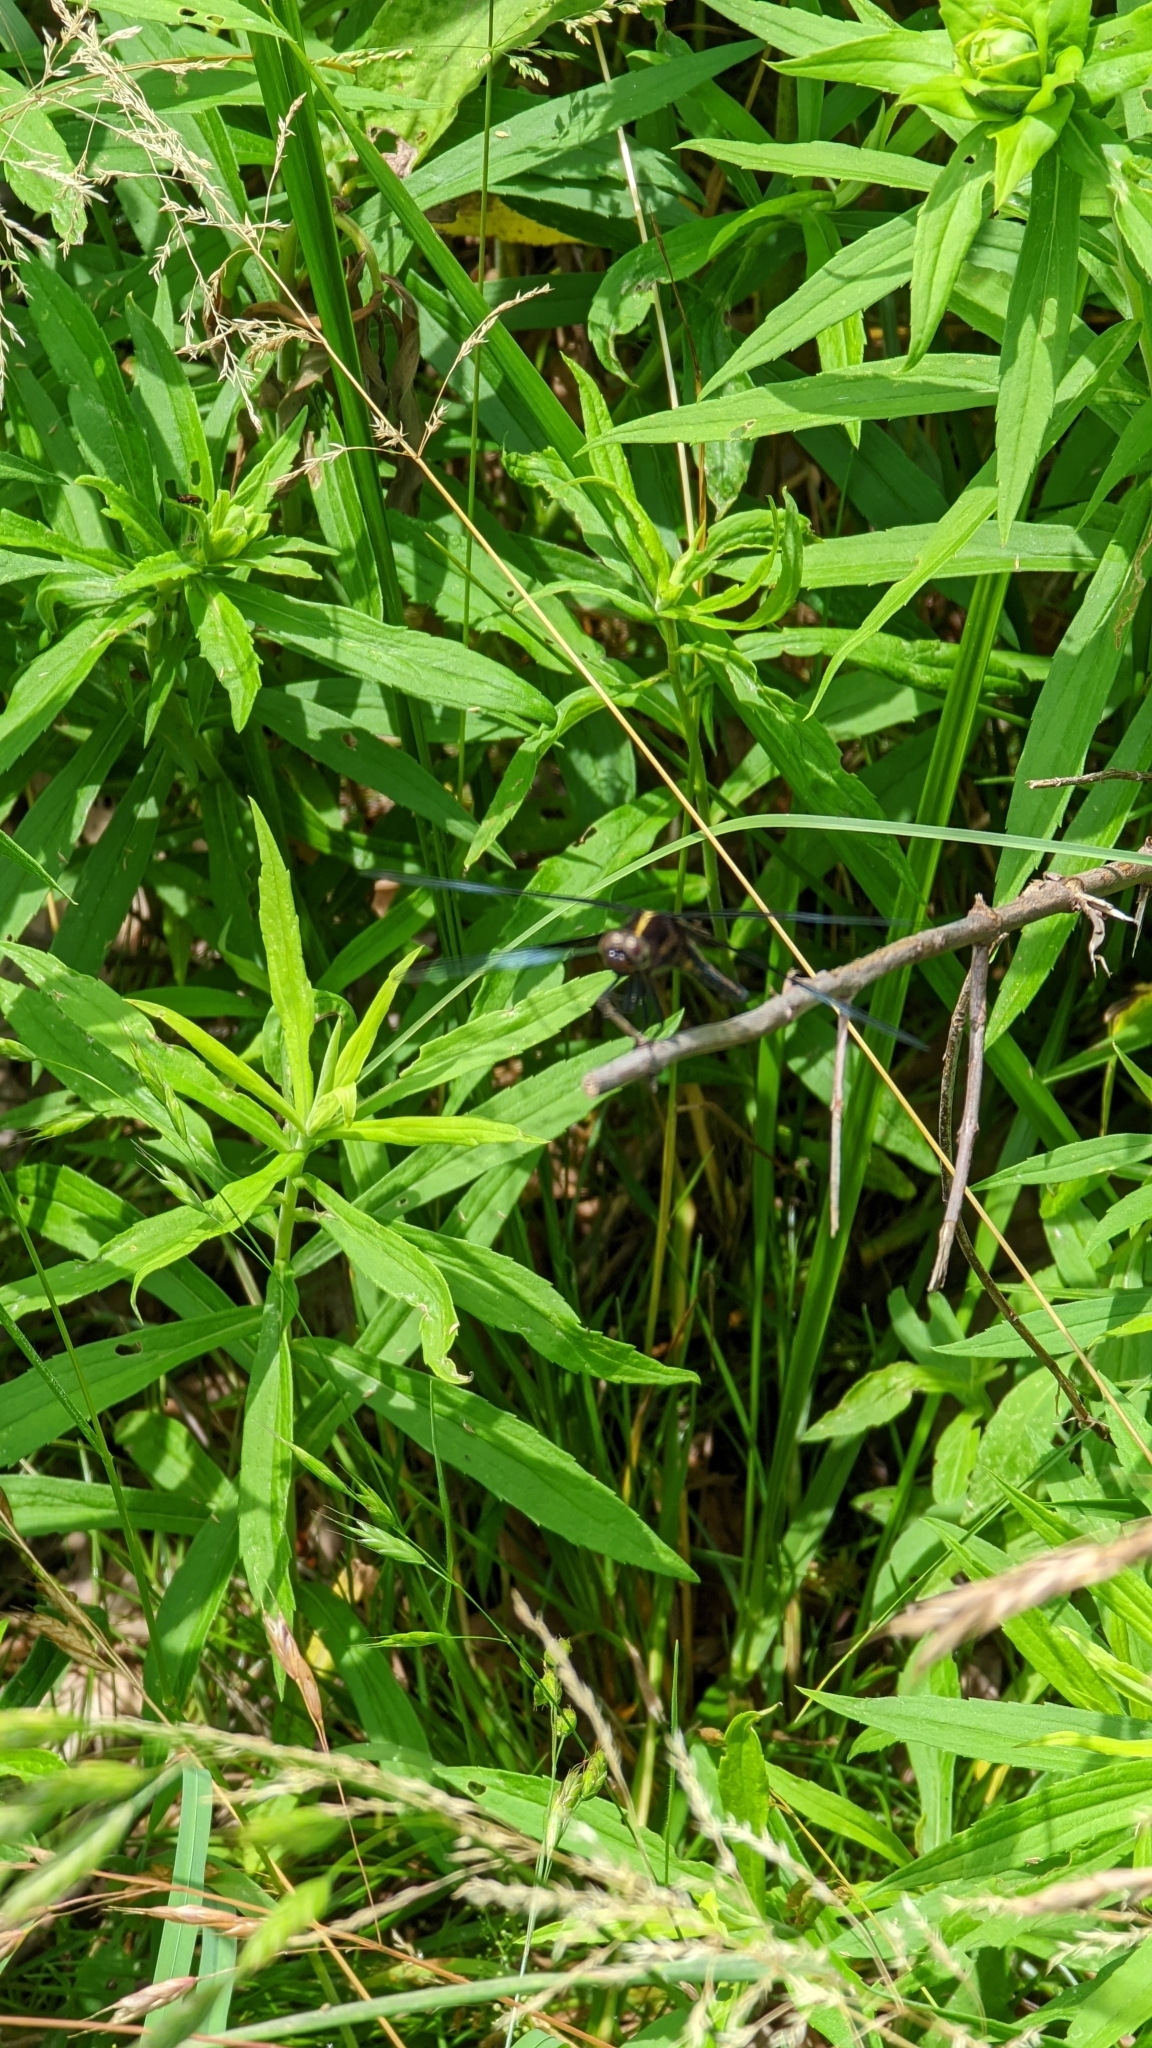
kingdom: Animalia
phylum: Arthropoda
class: Insecta
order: Odonata
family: Libellulidae
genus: Libellula
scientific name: Libellula luctuosa
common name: Widow skimmer
